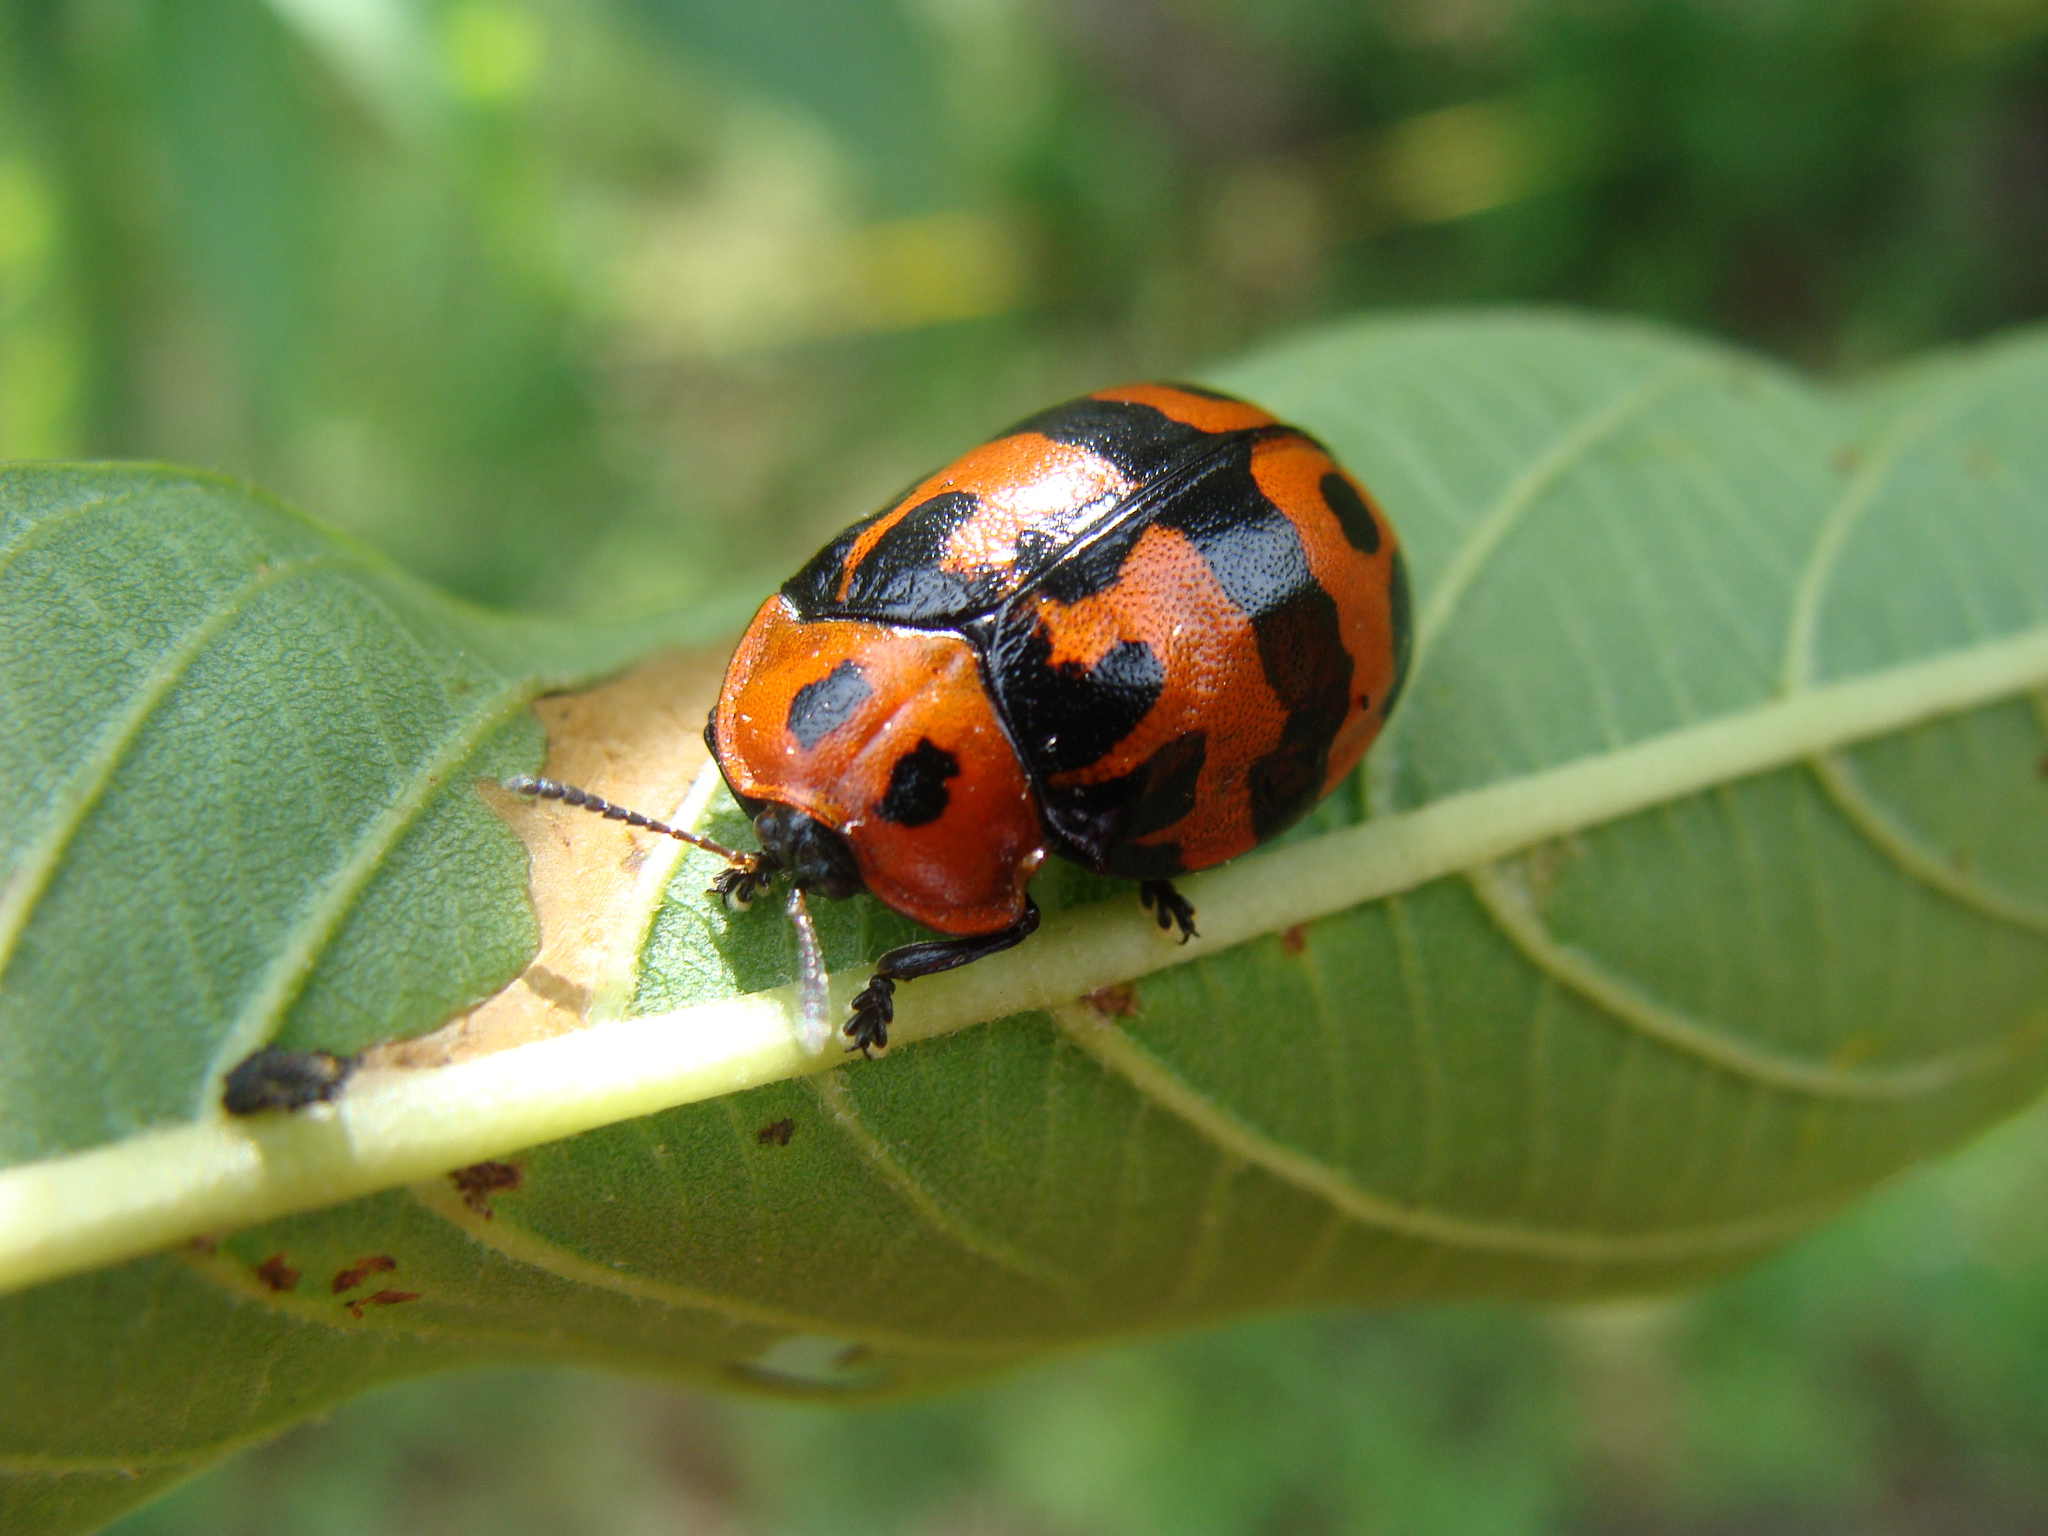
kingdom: Animalia
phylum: Arthropoda
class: Insecta
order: Coleoptera
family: Chrysomelidae
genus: Ogdoecosta
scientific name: Ogdoecosta fasciata
